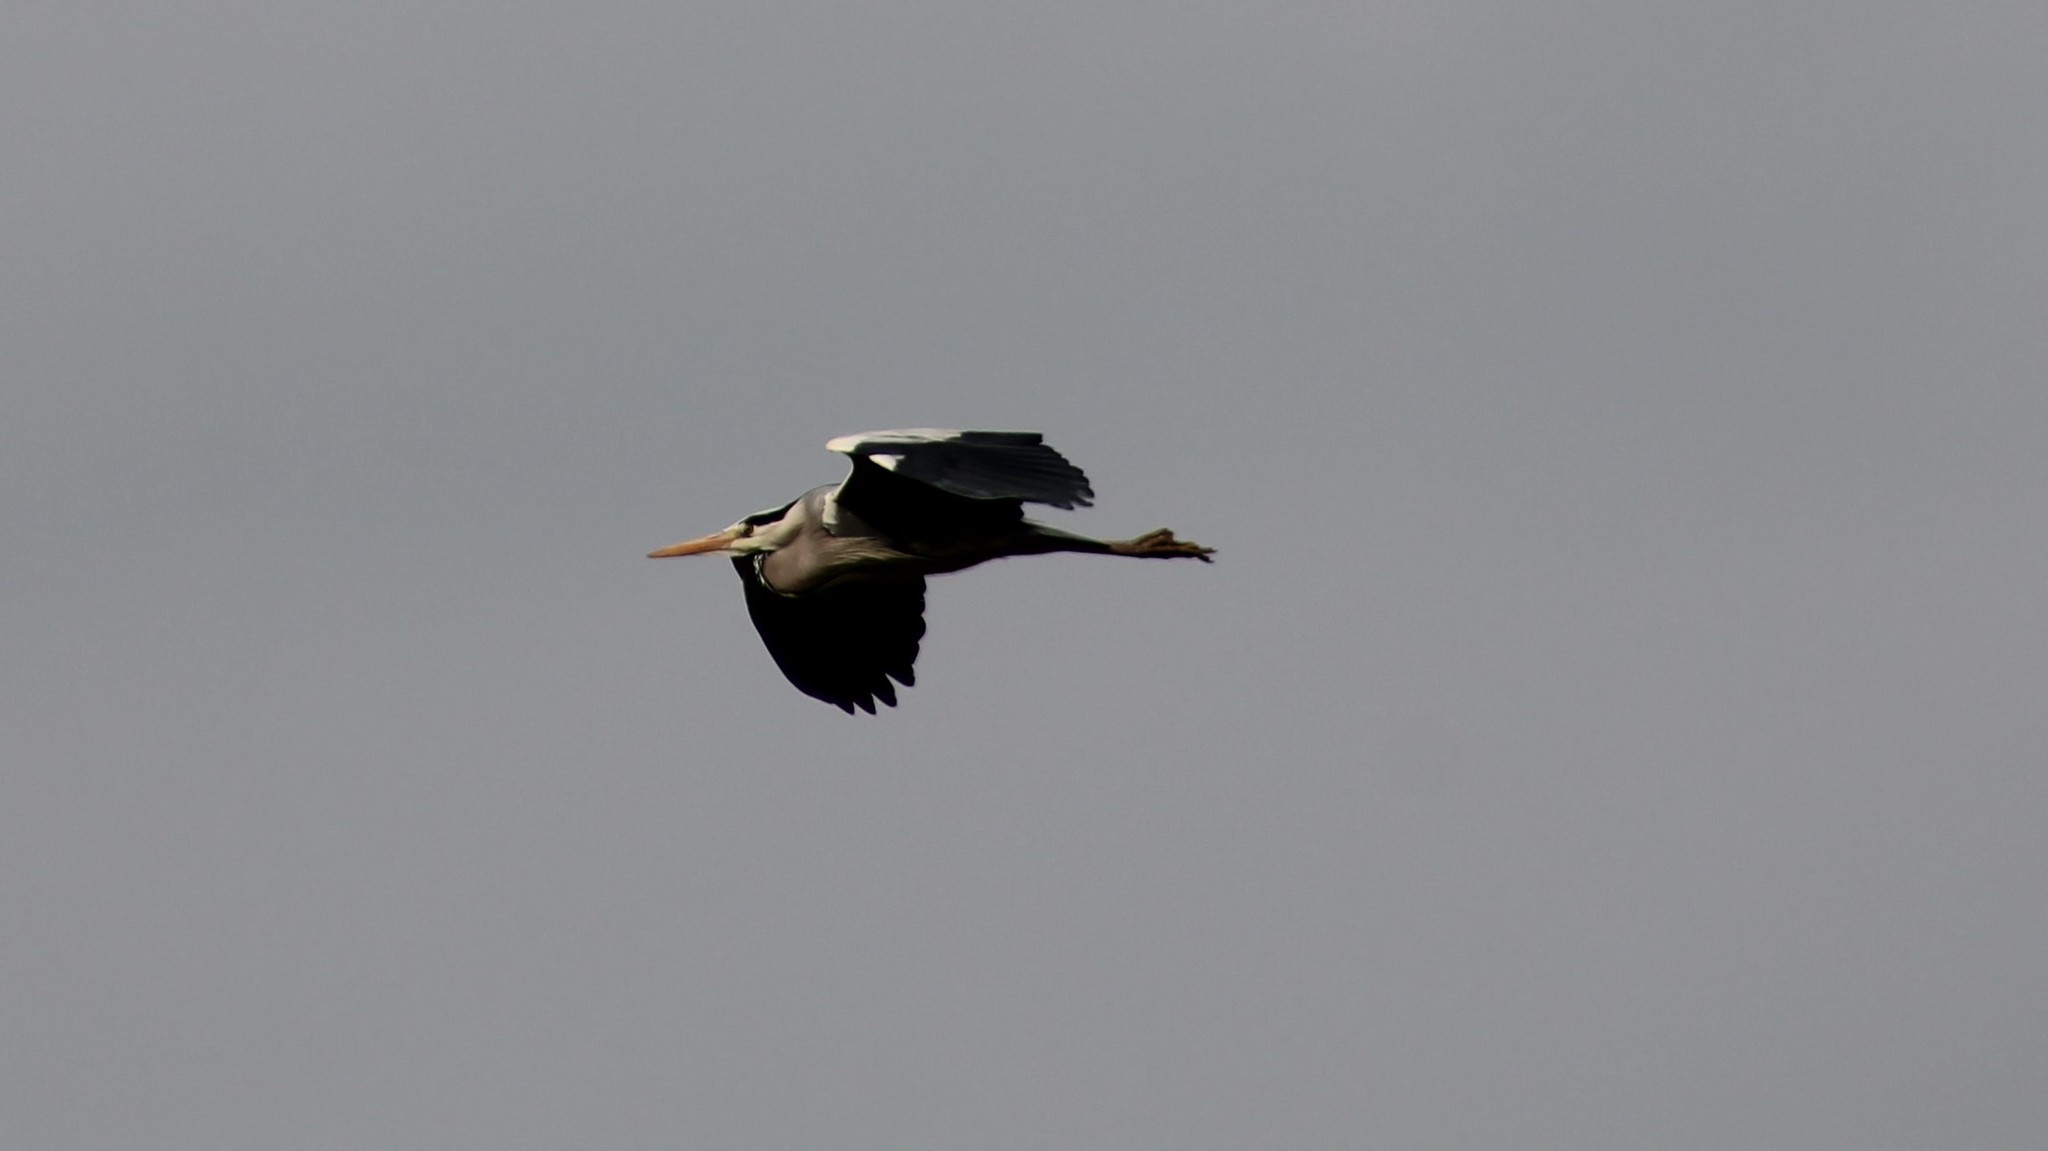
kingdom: Animalia
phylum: Chordata
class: Aves
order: Pelecaniformes
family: Ardeidae
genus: Ardea
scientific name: Ardea cinerea
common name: Grey heron
